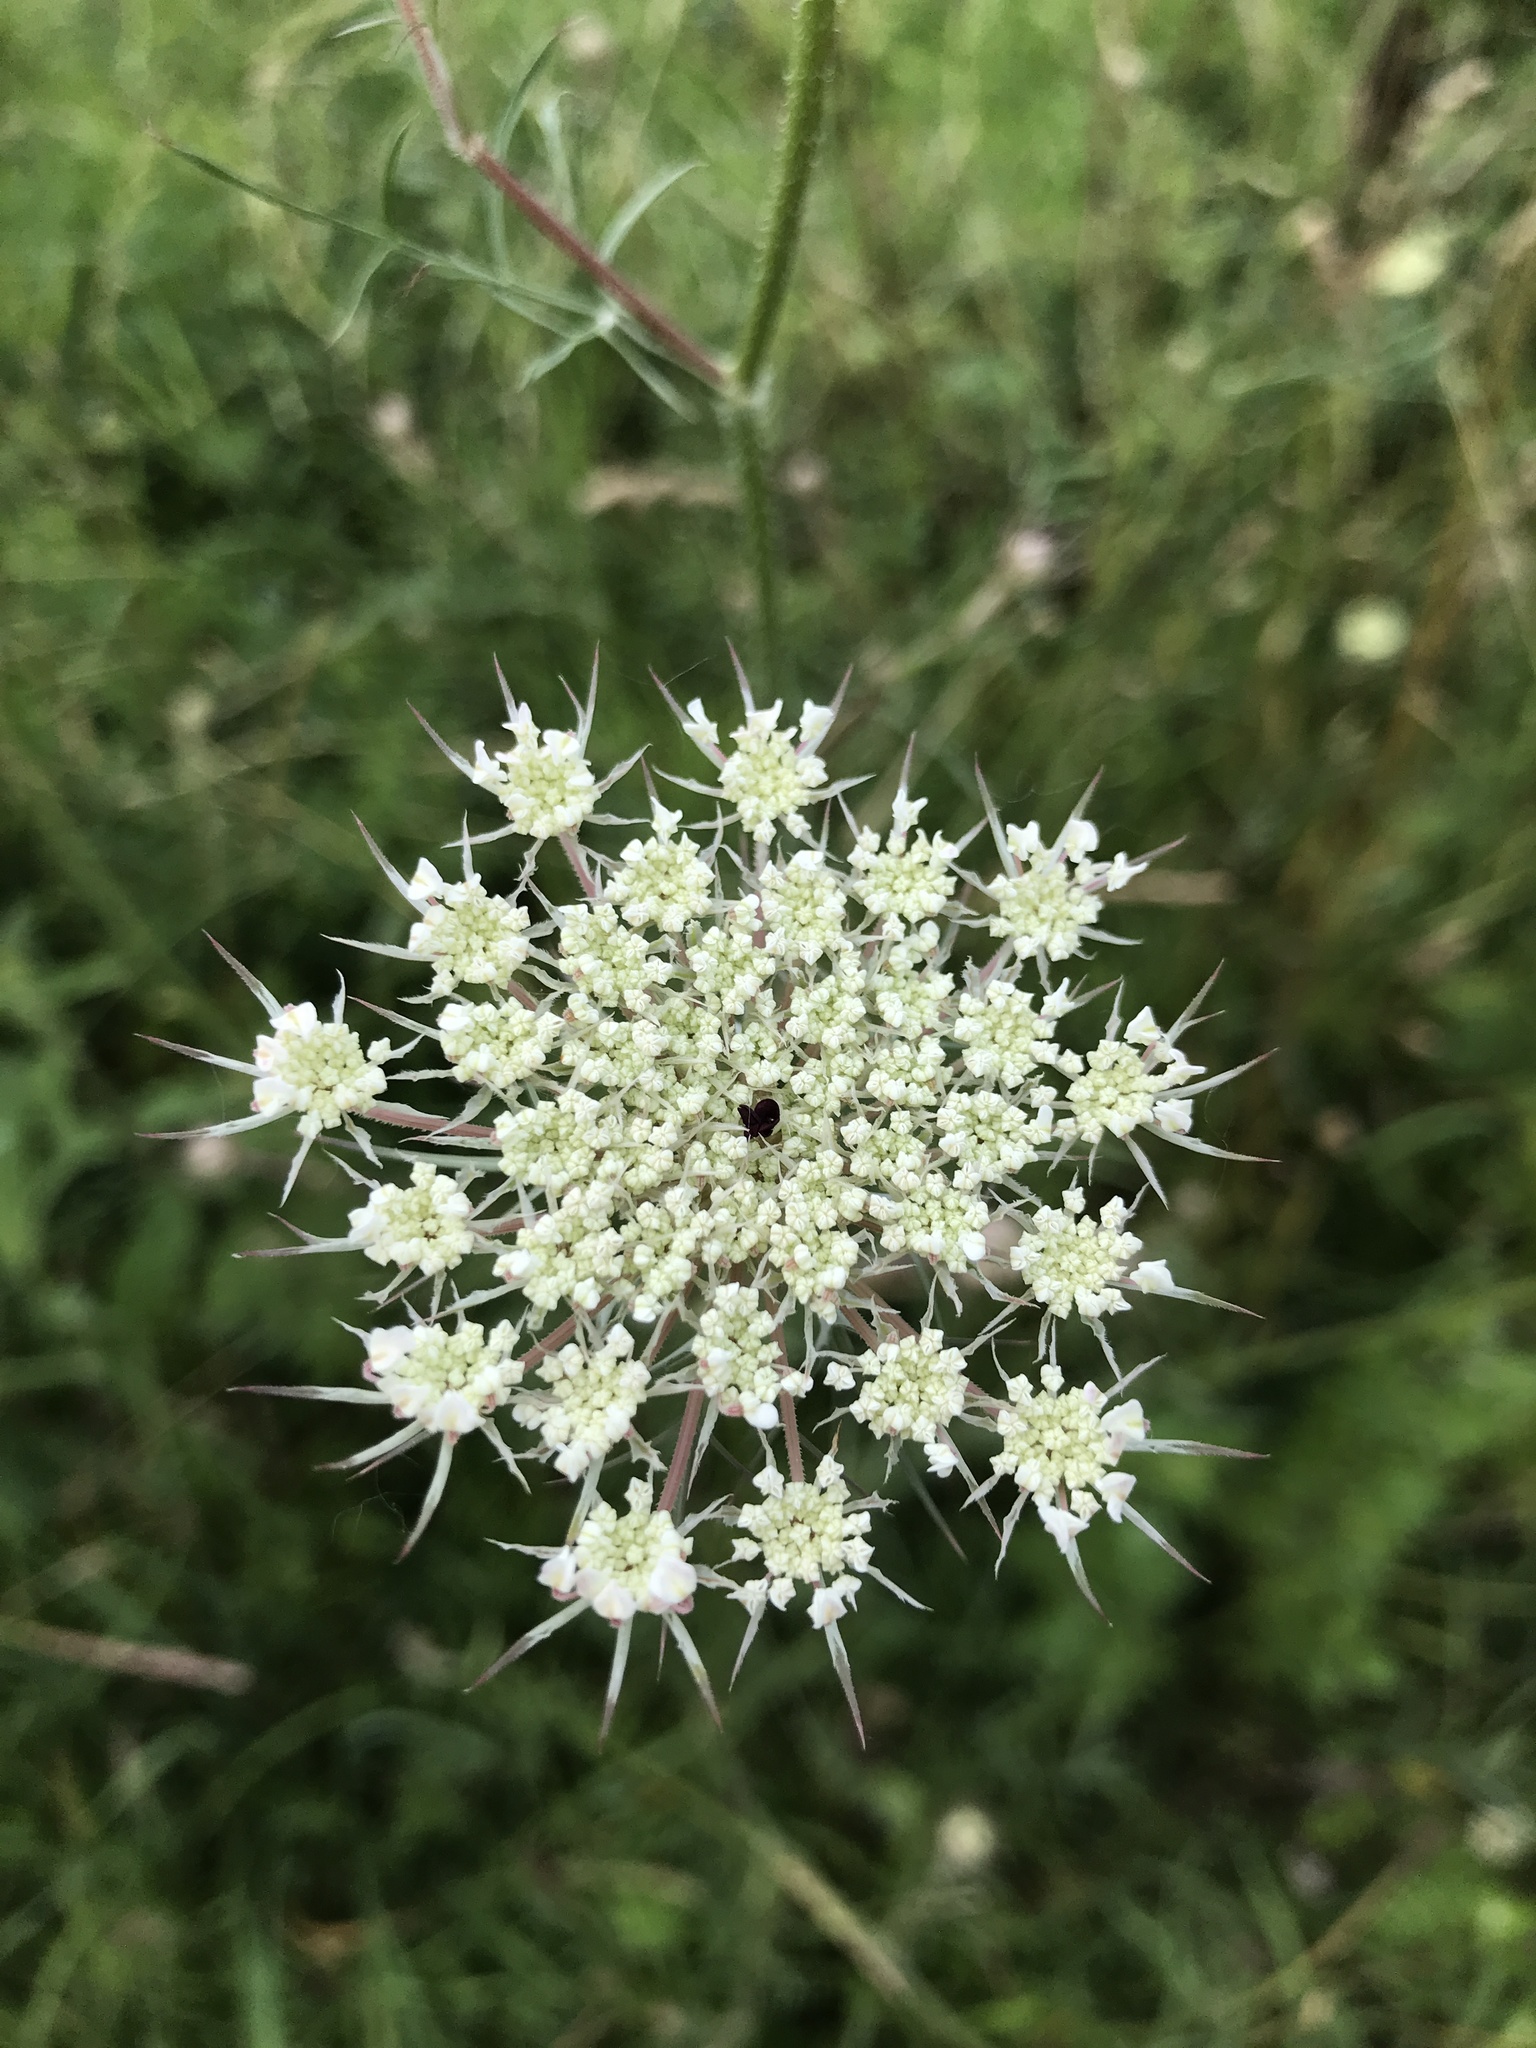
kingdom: Plantae
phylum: Tracheophyta
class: Magnoliopsida
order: Apiales
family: Apiaceae
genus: Daucus
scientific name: Daucus carota
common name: Wild carrot
